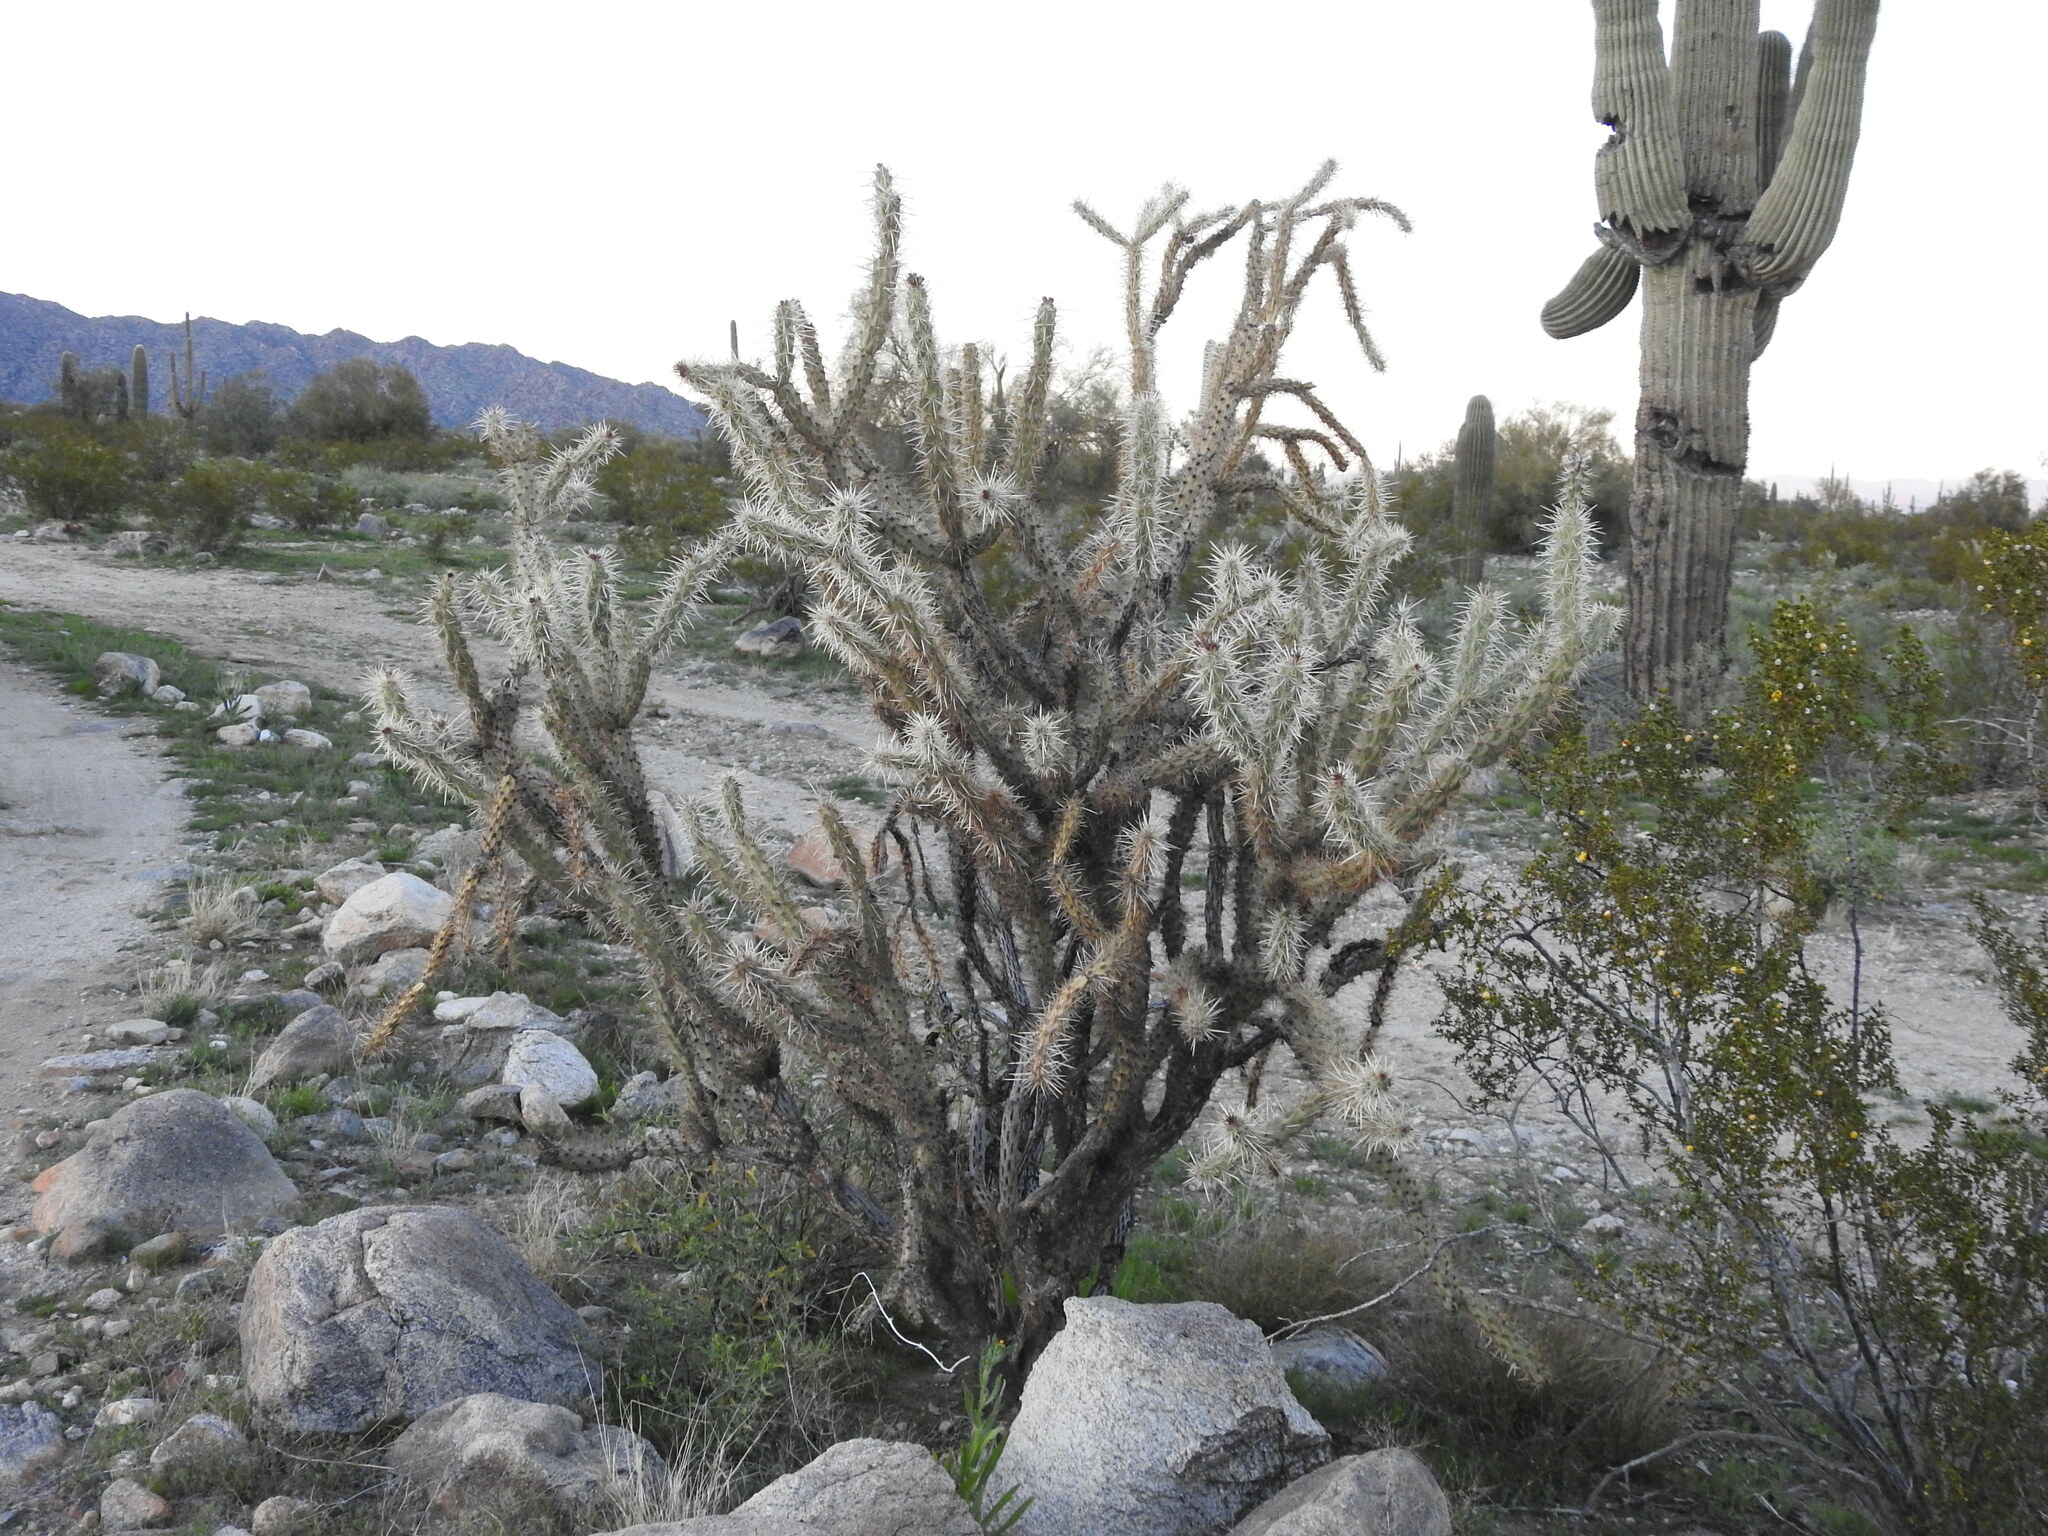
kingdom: Plantae
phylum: Tracheophyta
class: Magnoliopsida
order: Caryophyllales
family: Cactaceae
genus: Cylindropuntia
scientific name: Cylindropuntia acanthocarpa
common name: Buckhorn cholla
